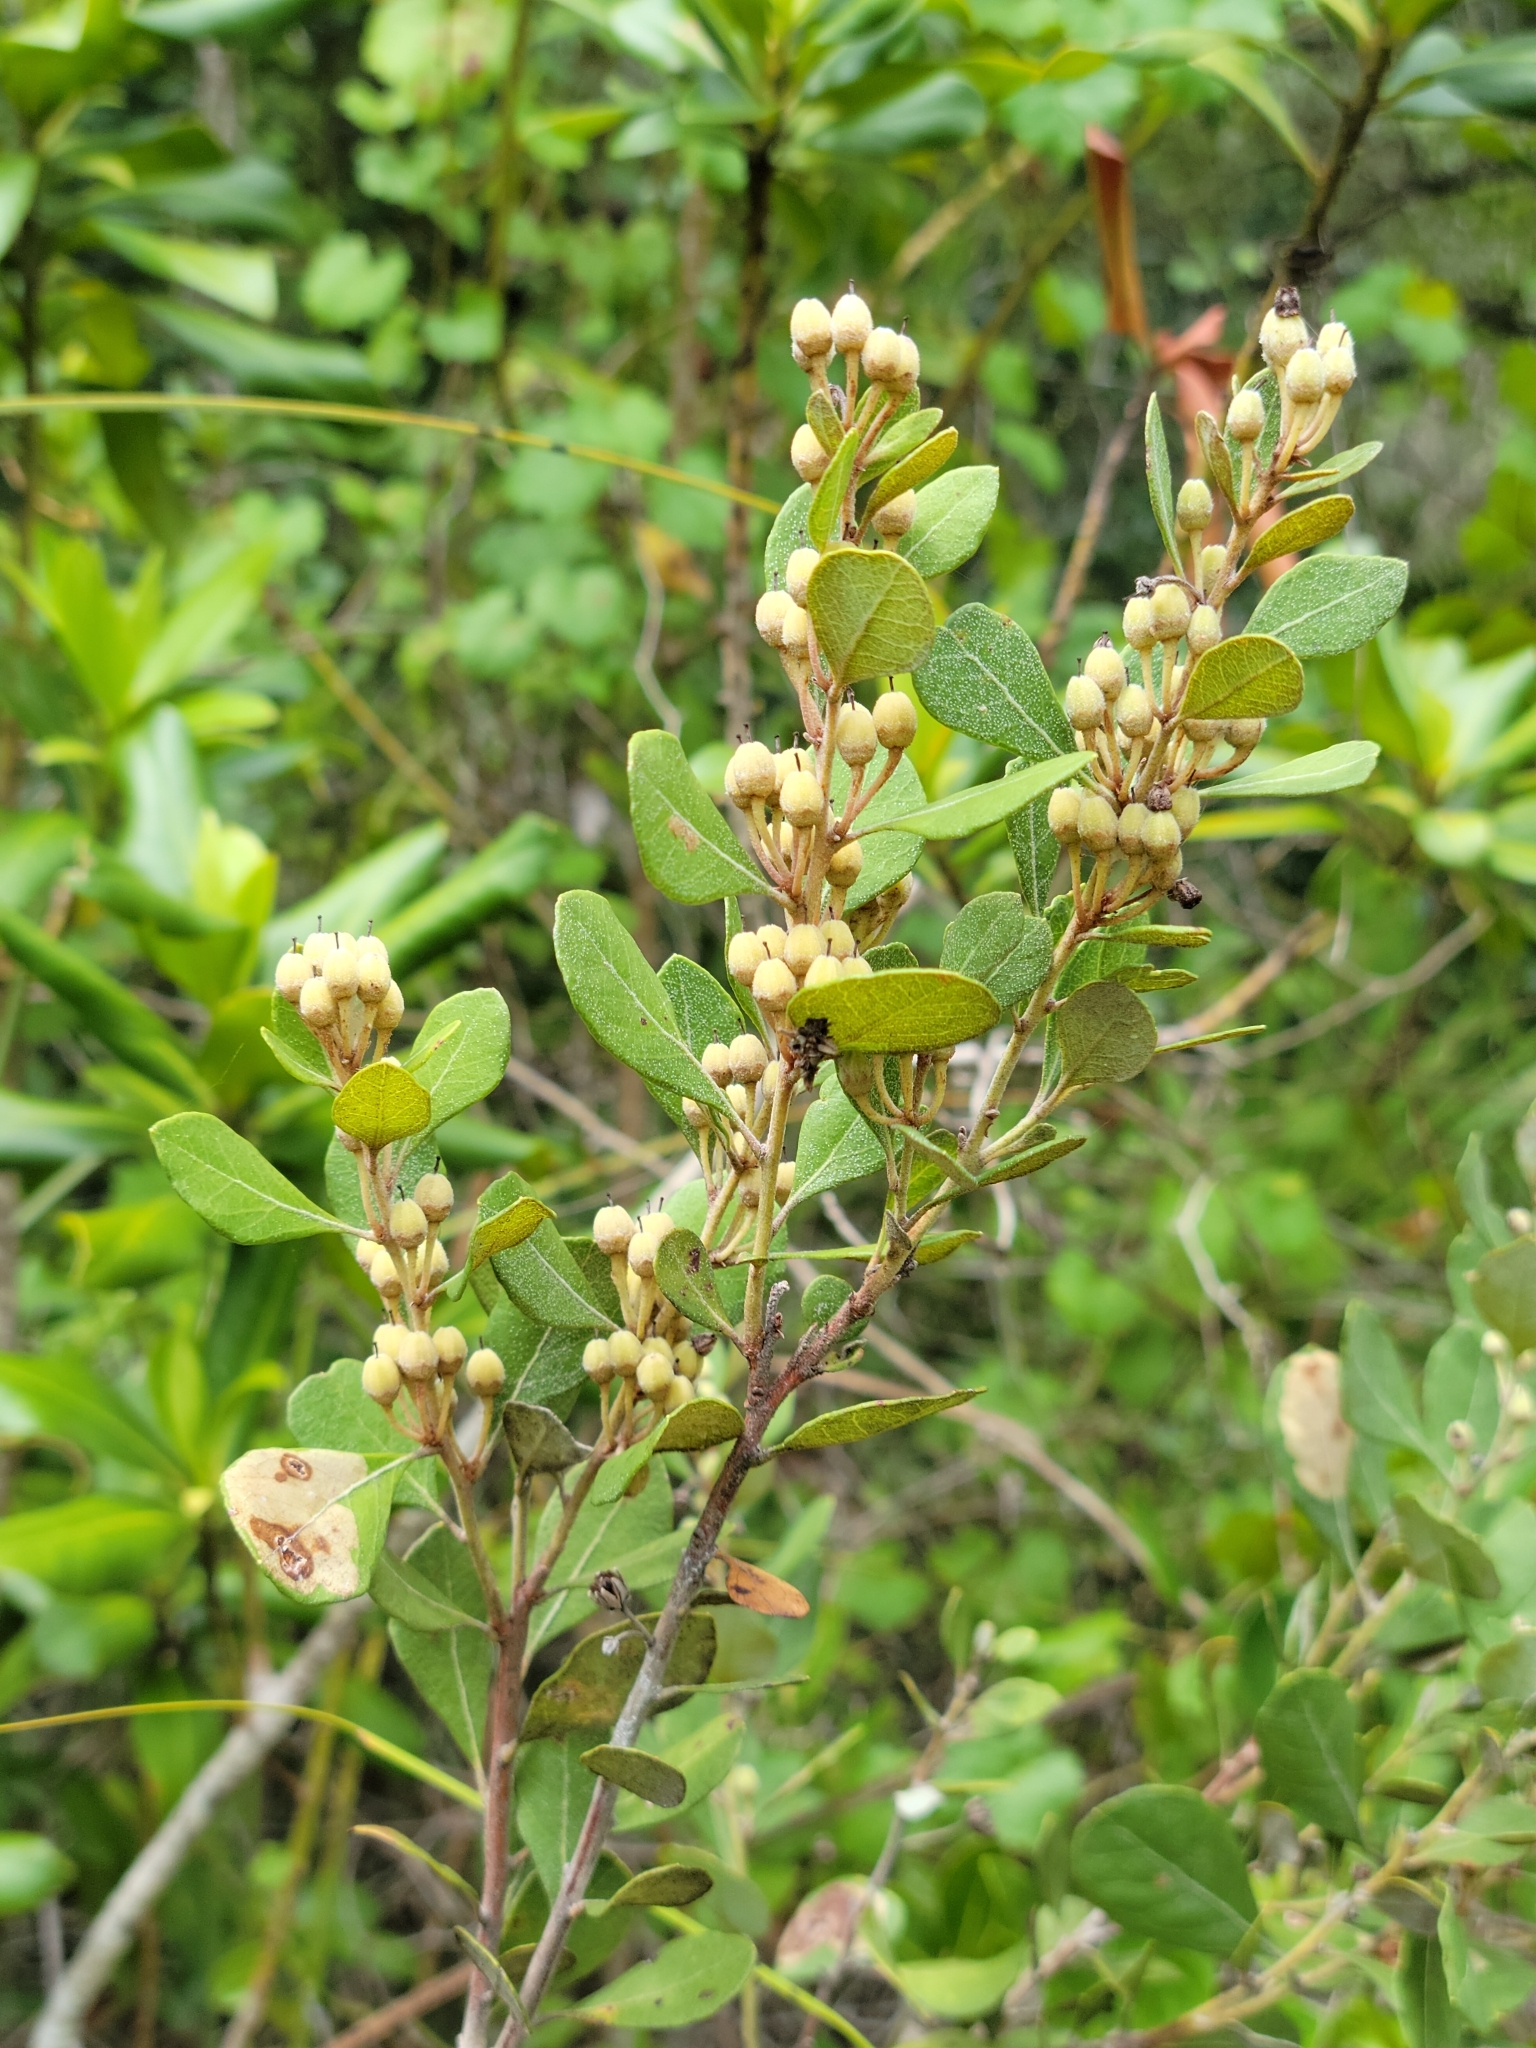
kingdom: Plantae
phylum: Tracheophyta
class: Magnoliopsida
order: Ericales
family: Ericaceae
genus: Lyonia
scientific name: Lyonia fruticosa
